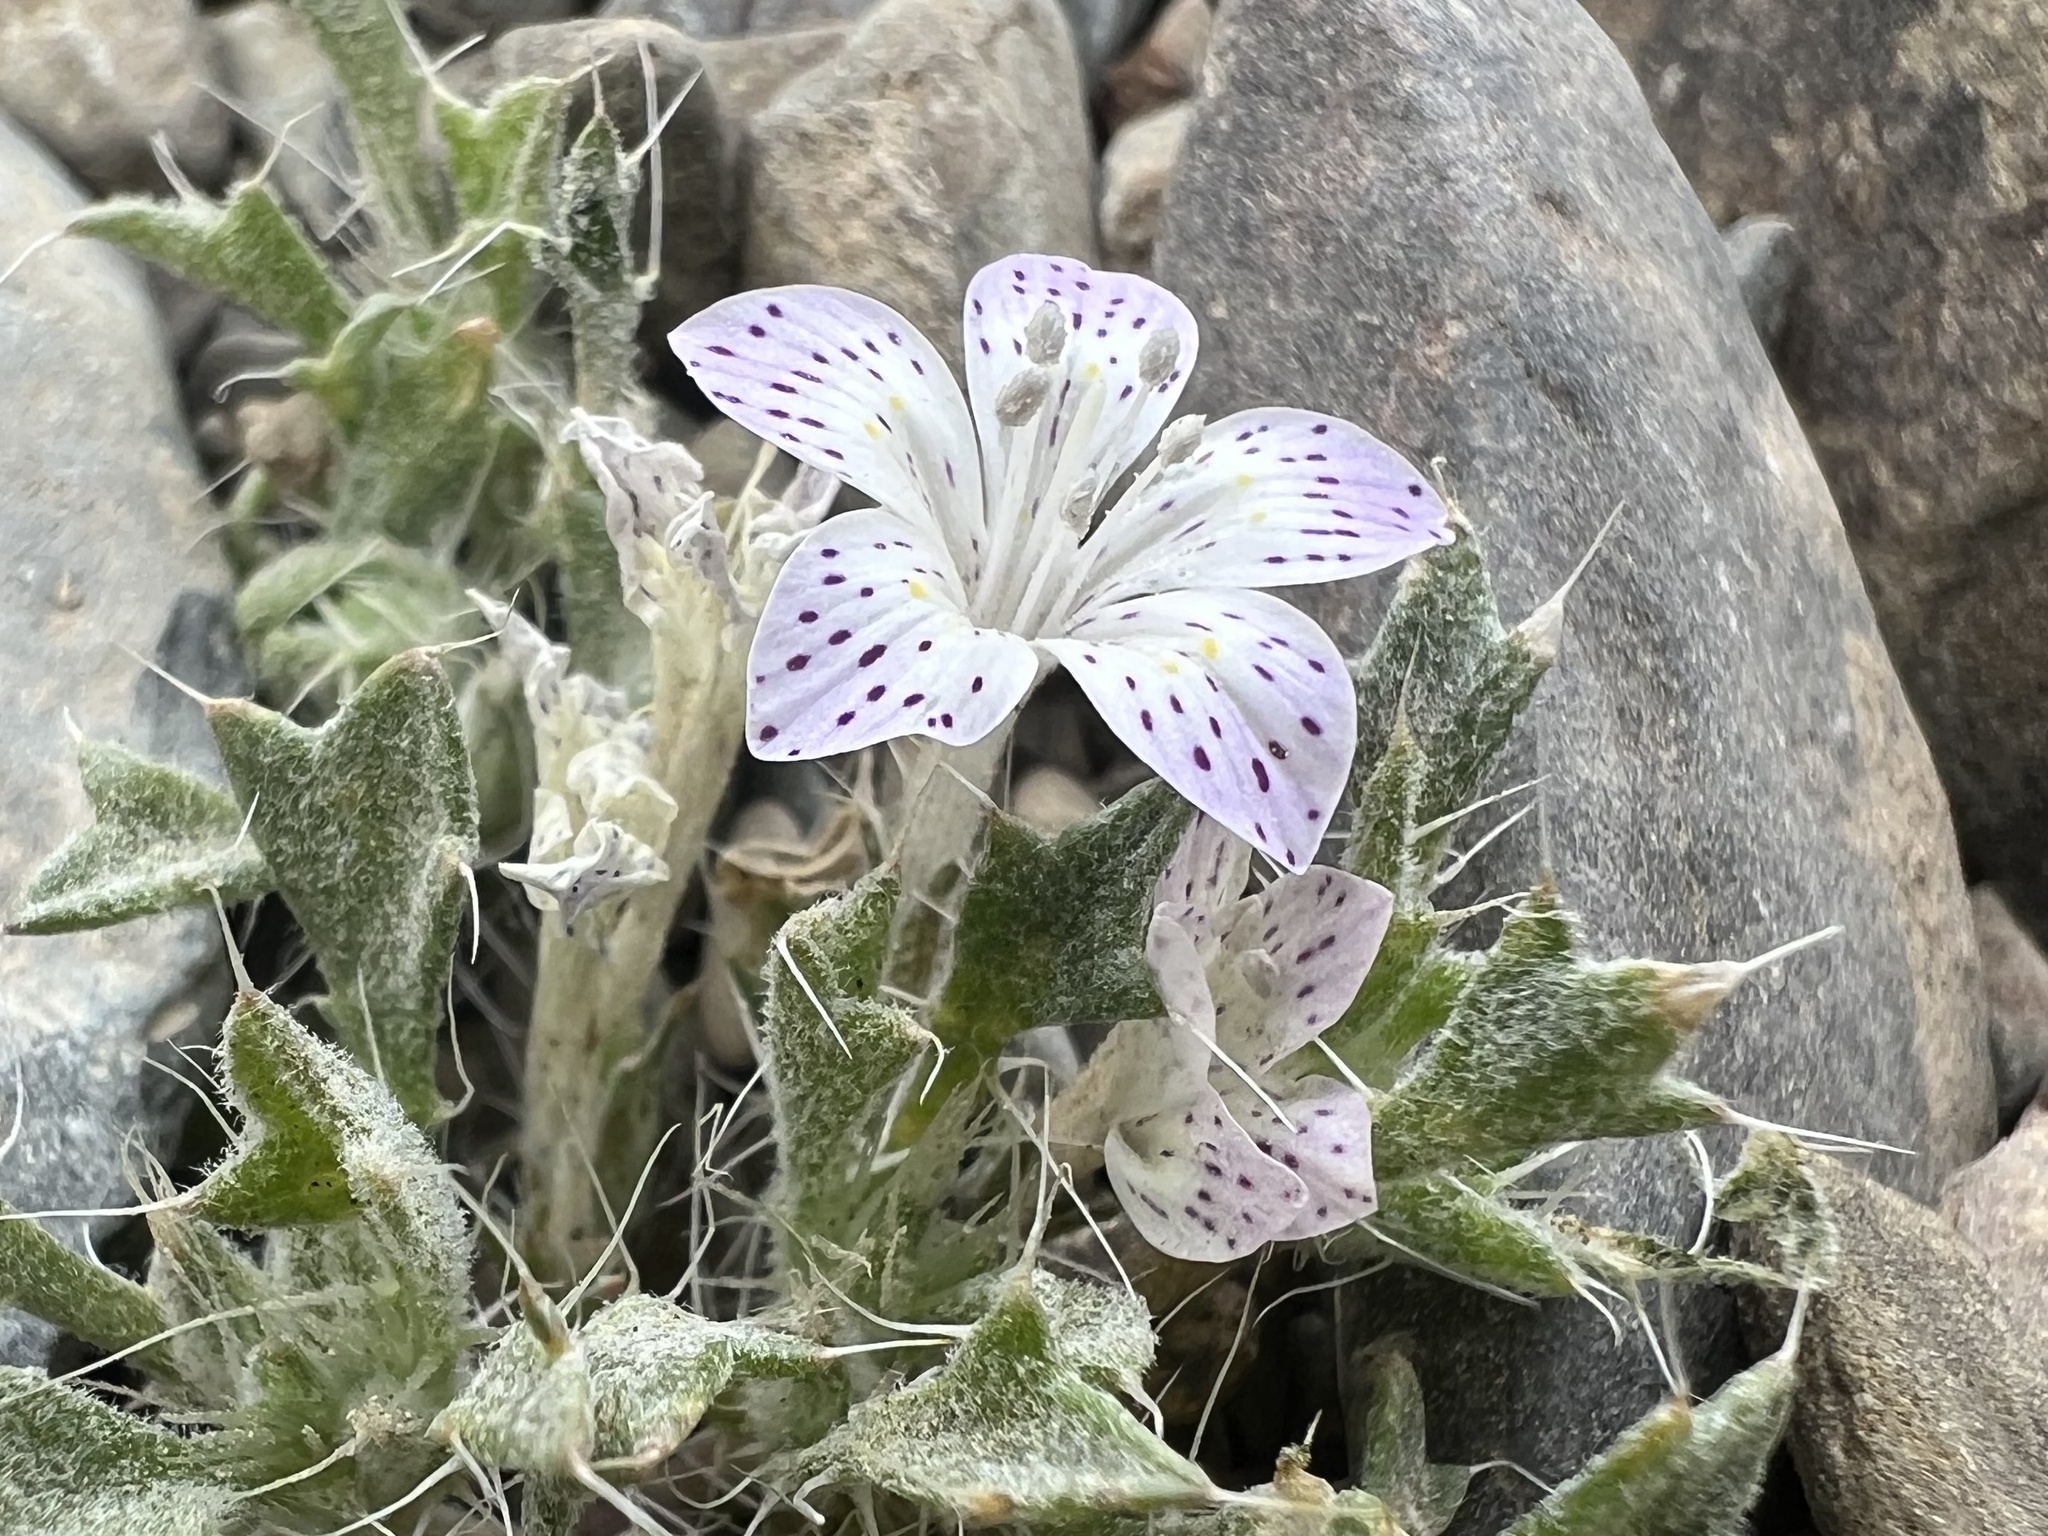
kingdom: Plantae
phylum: Tracheophyta
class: Magnoliopsida
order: Ericales
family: Polemoniaceae
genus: Langloisia
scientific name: Langloisia setosissima
